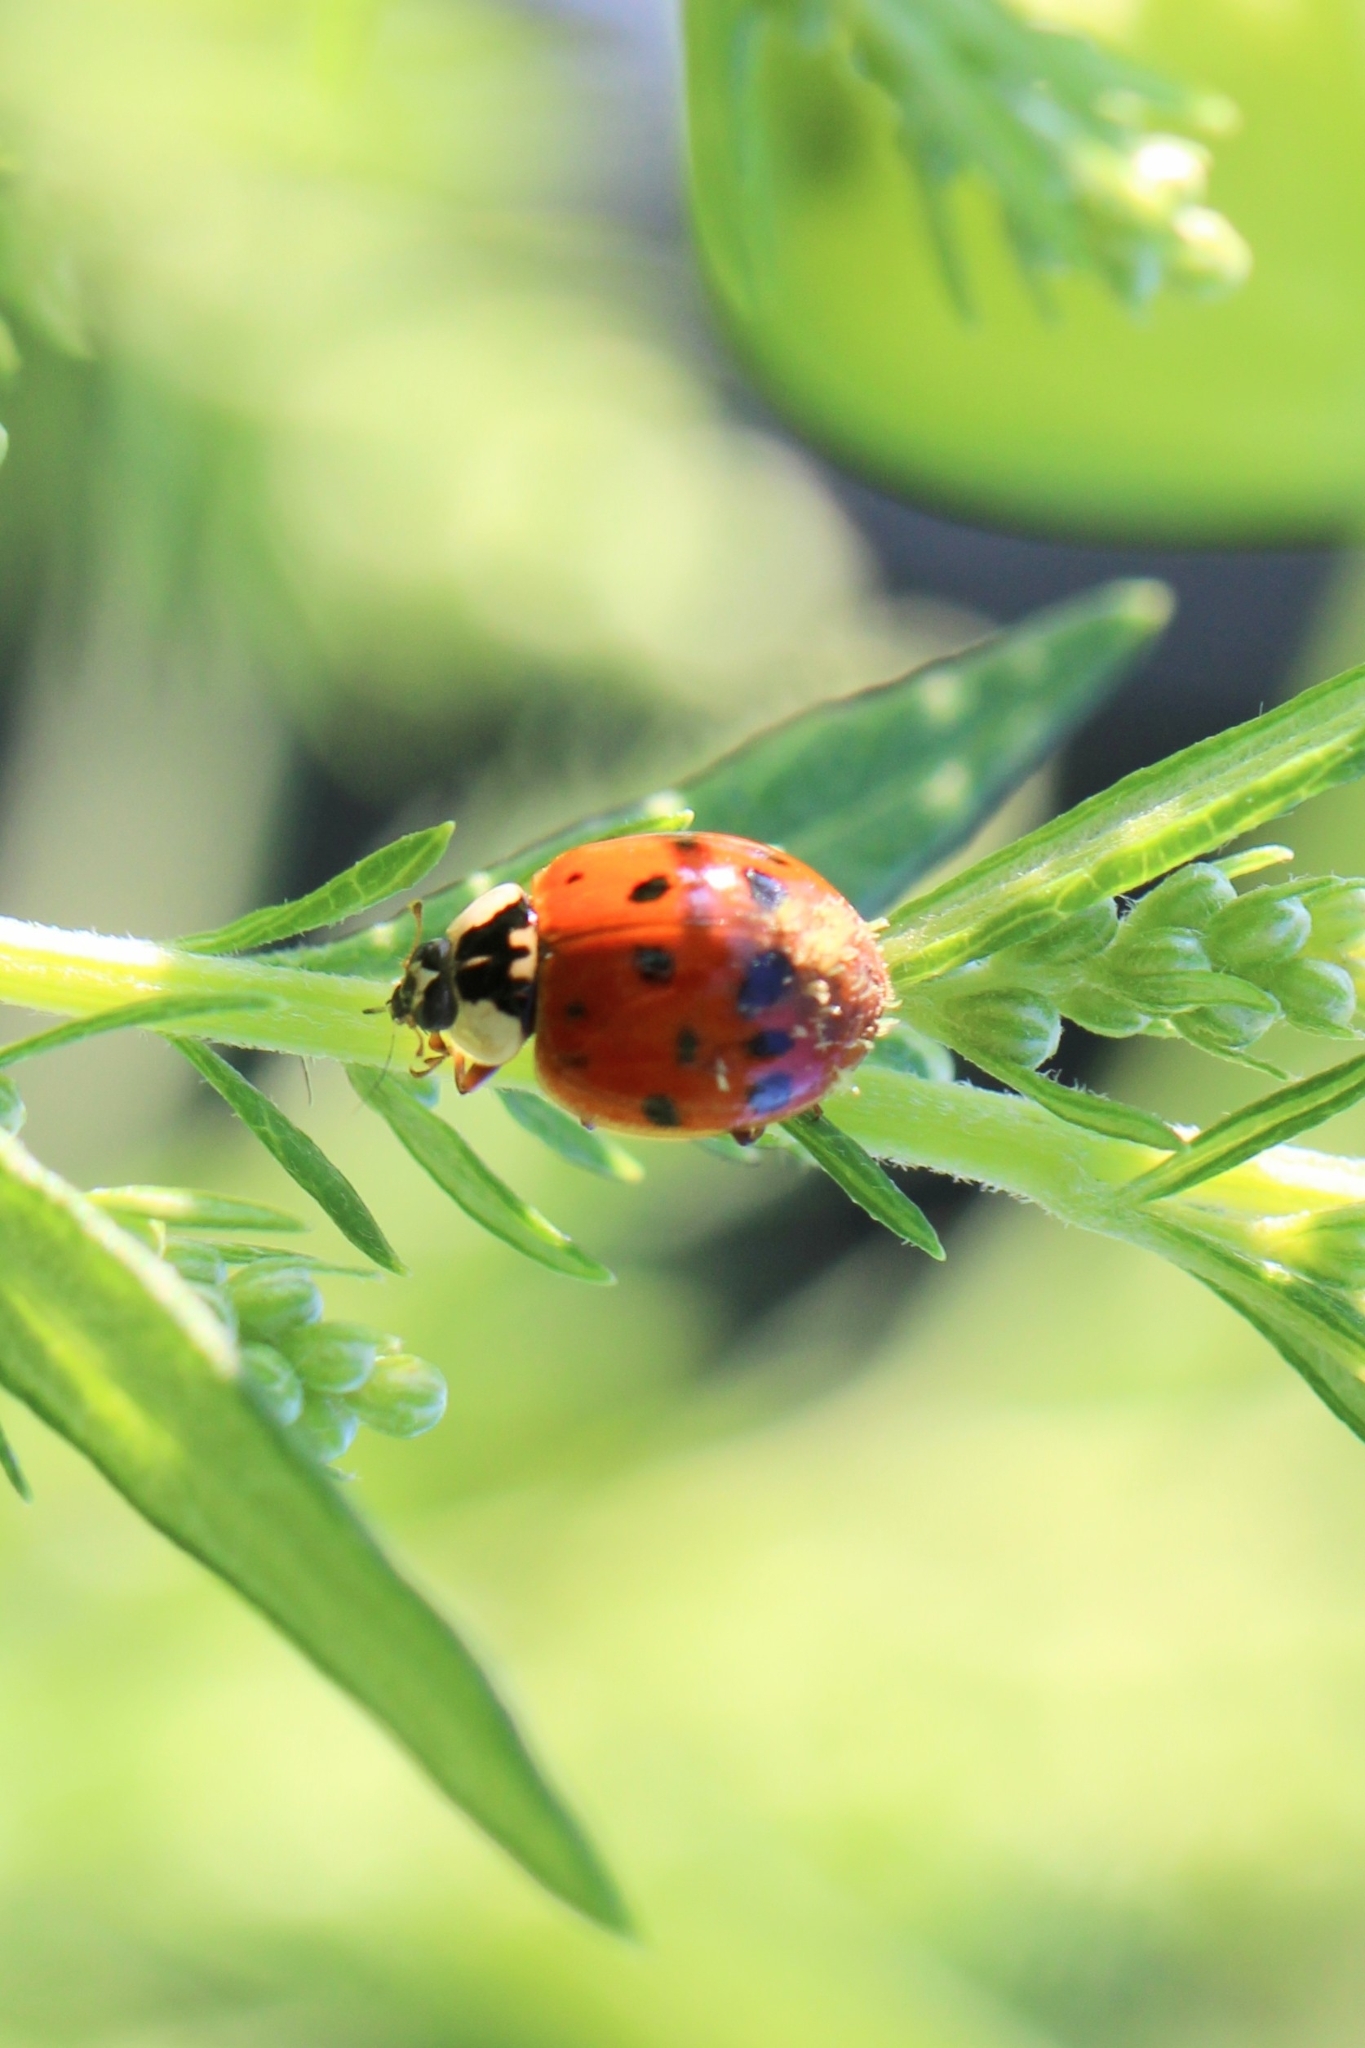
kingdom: Animalia
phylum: Arthropoda
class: Insecta
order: Coleoptera
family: Coccinellidae
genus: Harmonia
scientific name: Harmonia axyridis
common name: Harlequin ladybird
